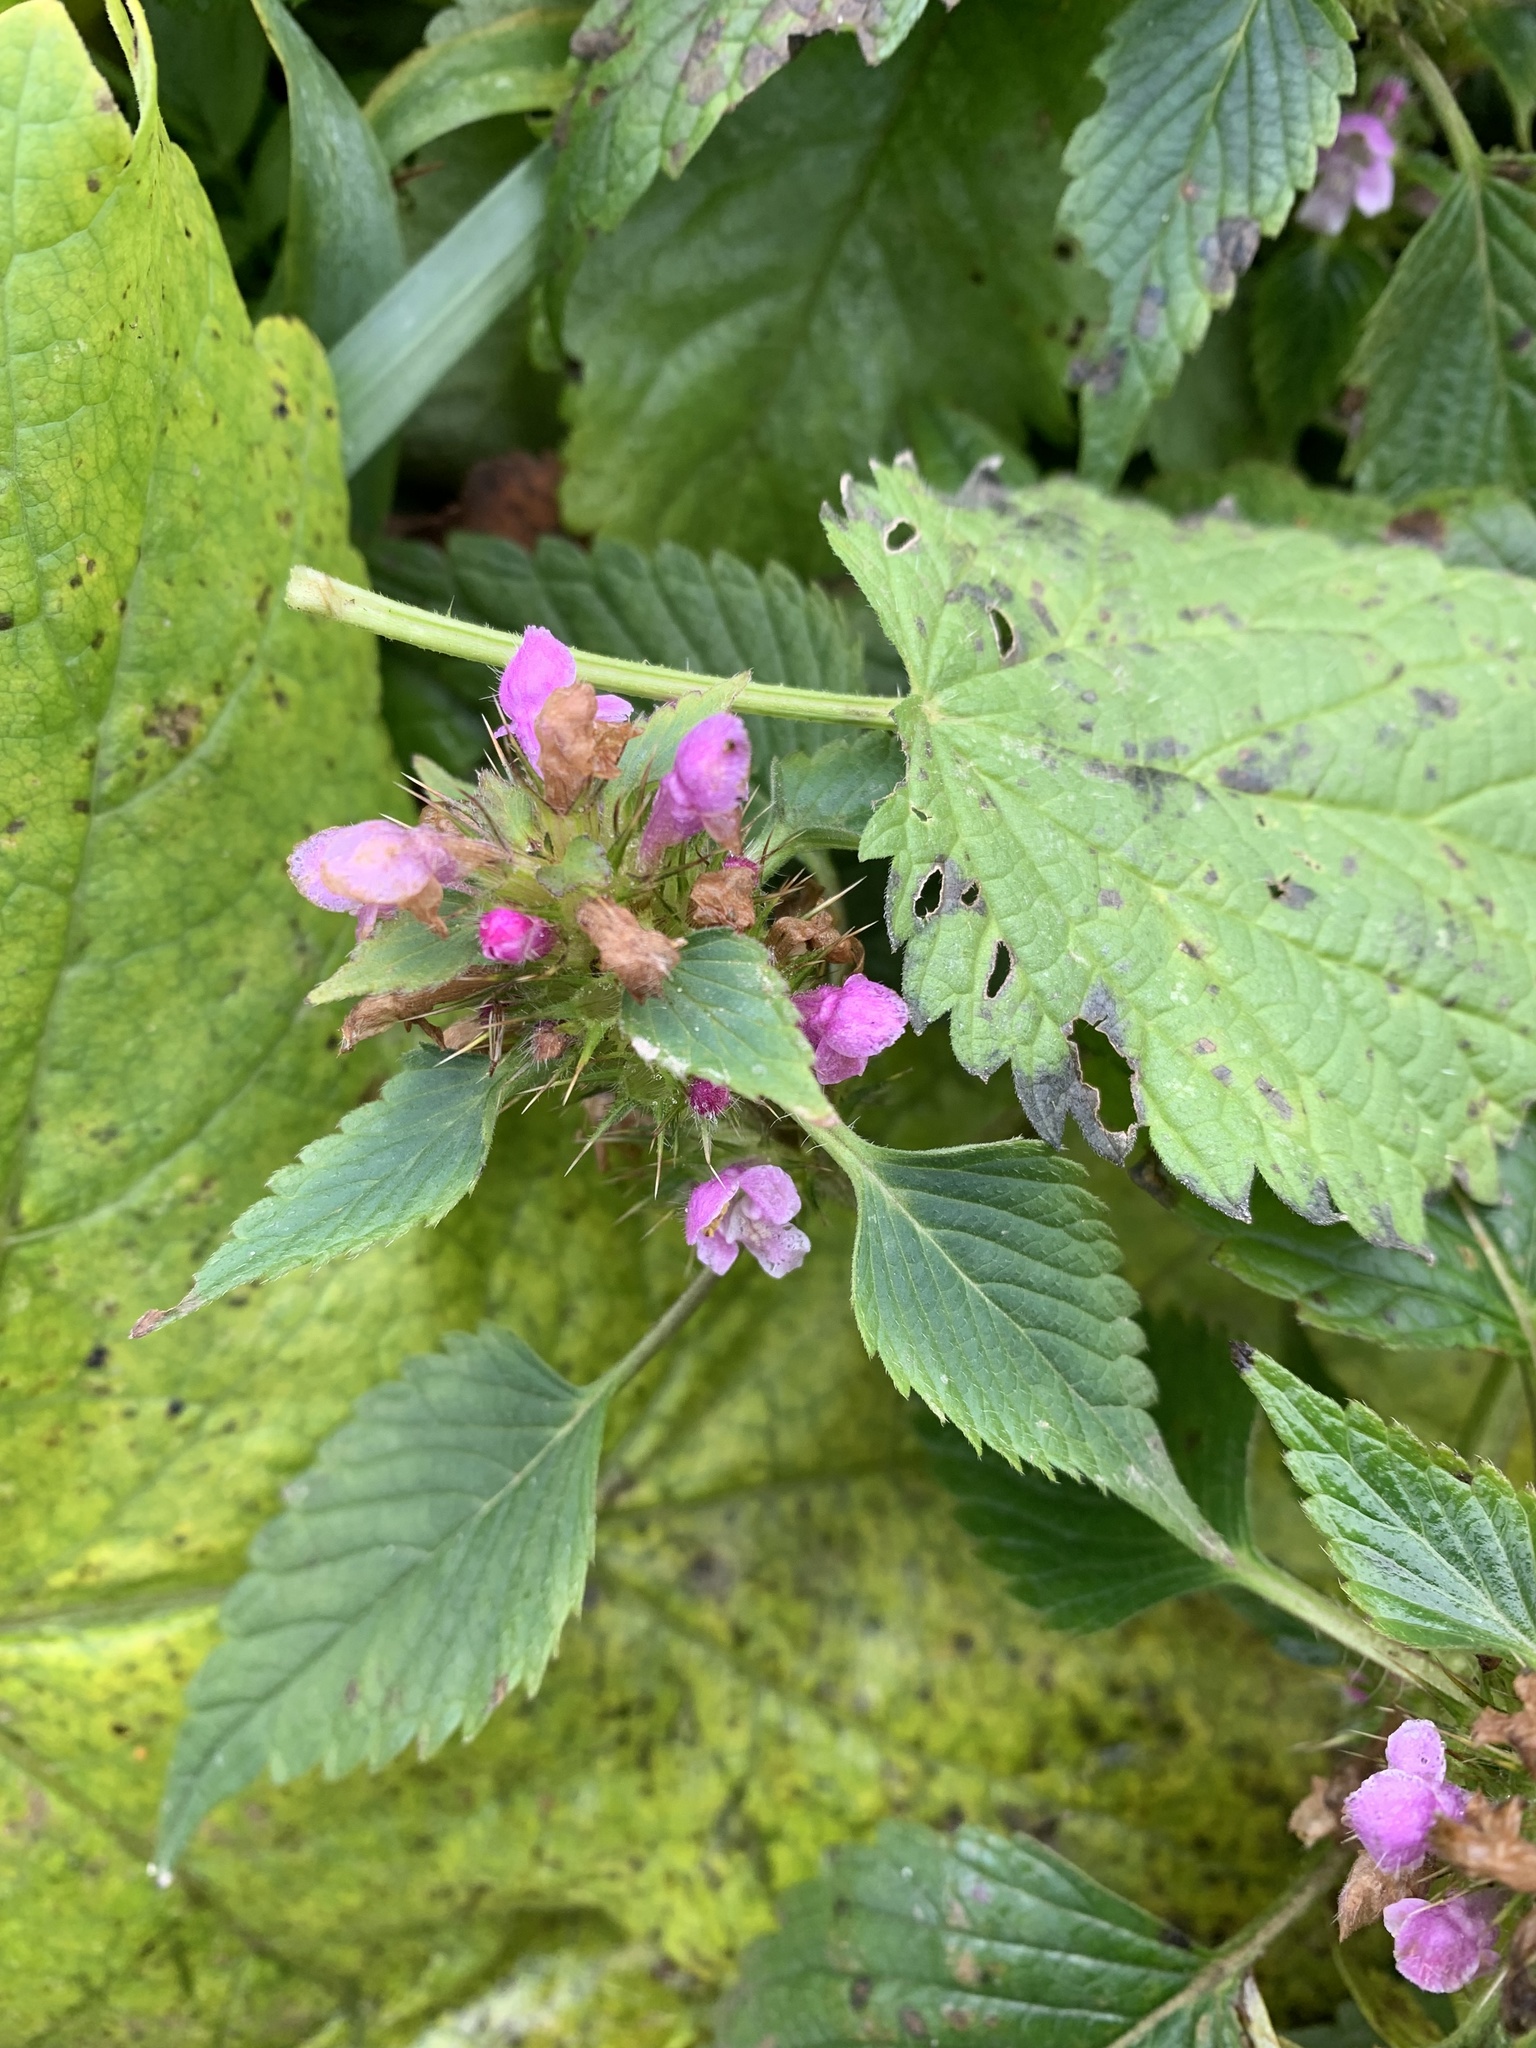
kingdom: Plantae
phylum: Tracheophyta
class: Magnoliopsida
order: Lamiales
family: Lamiaceae
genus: Galeopsis
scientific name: Galeopsis tetrahit
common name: Common hemp-nettle
